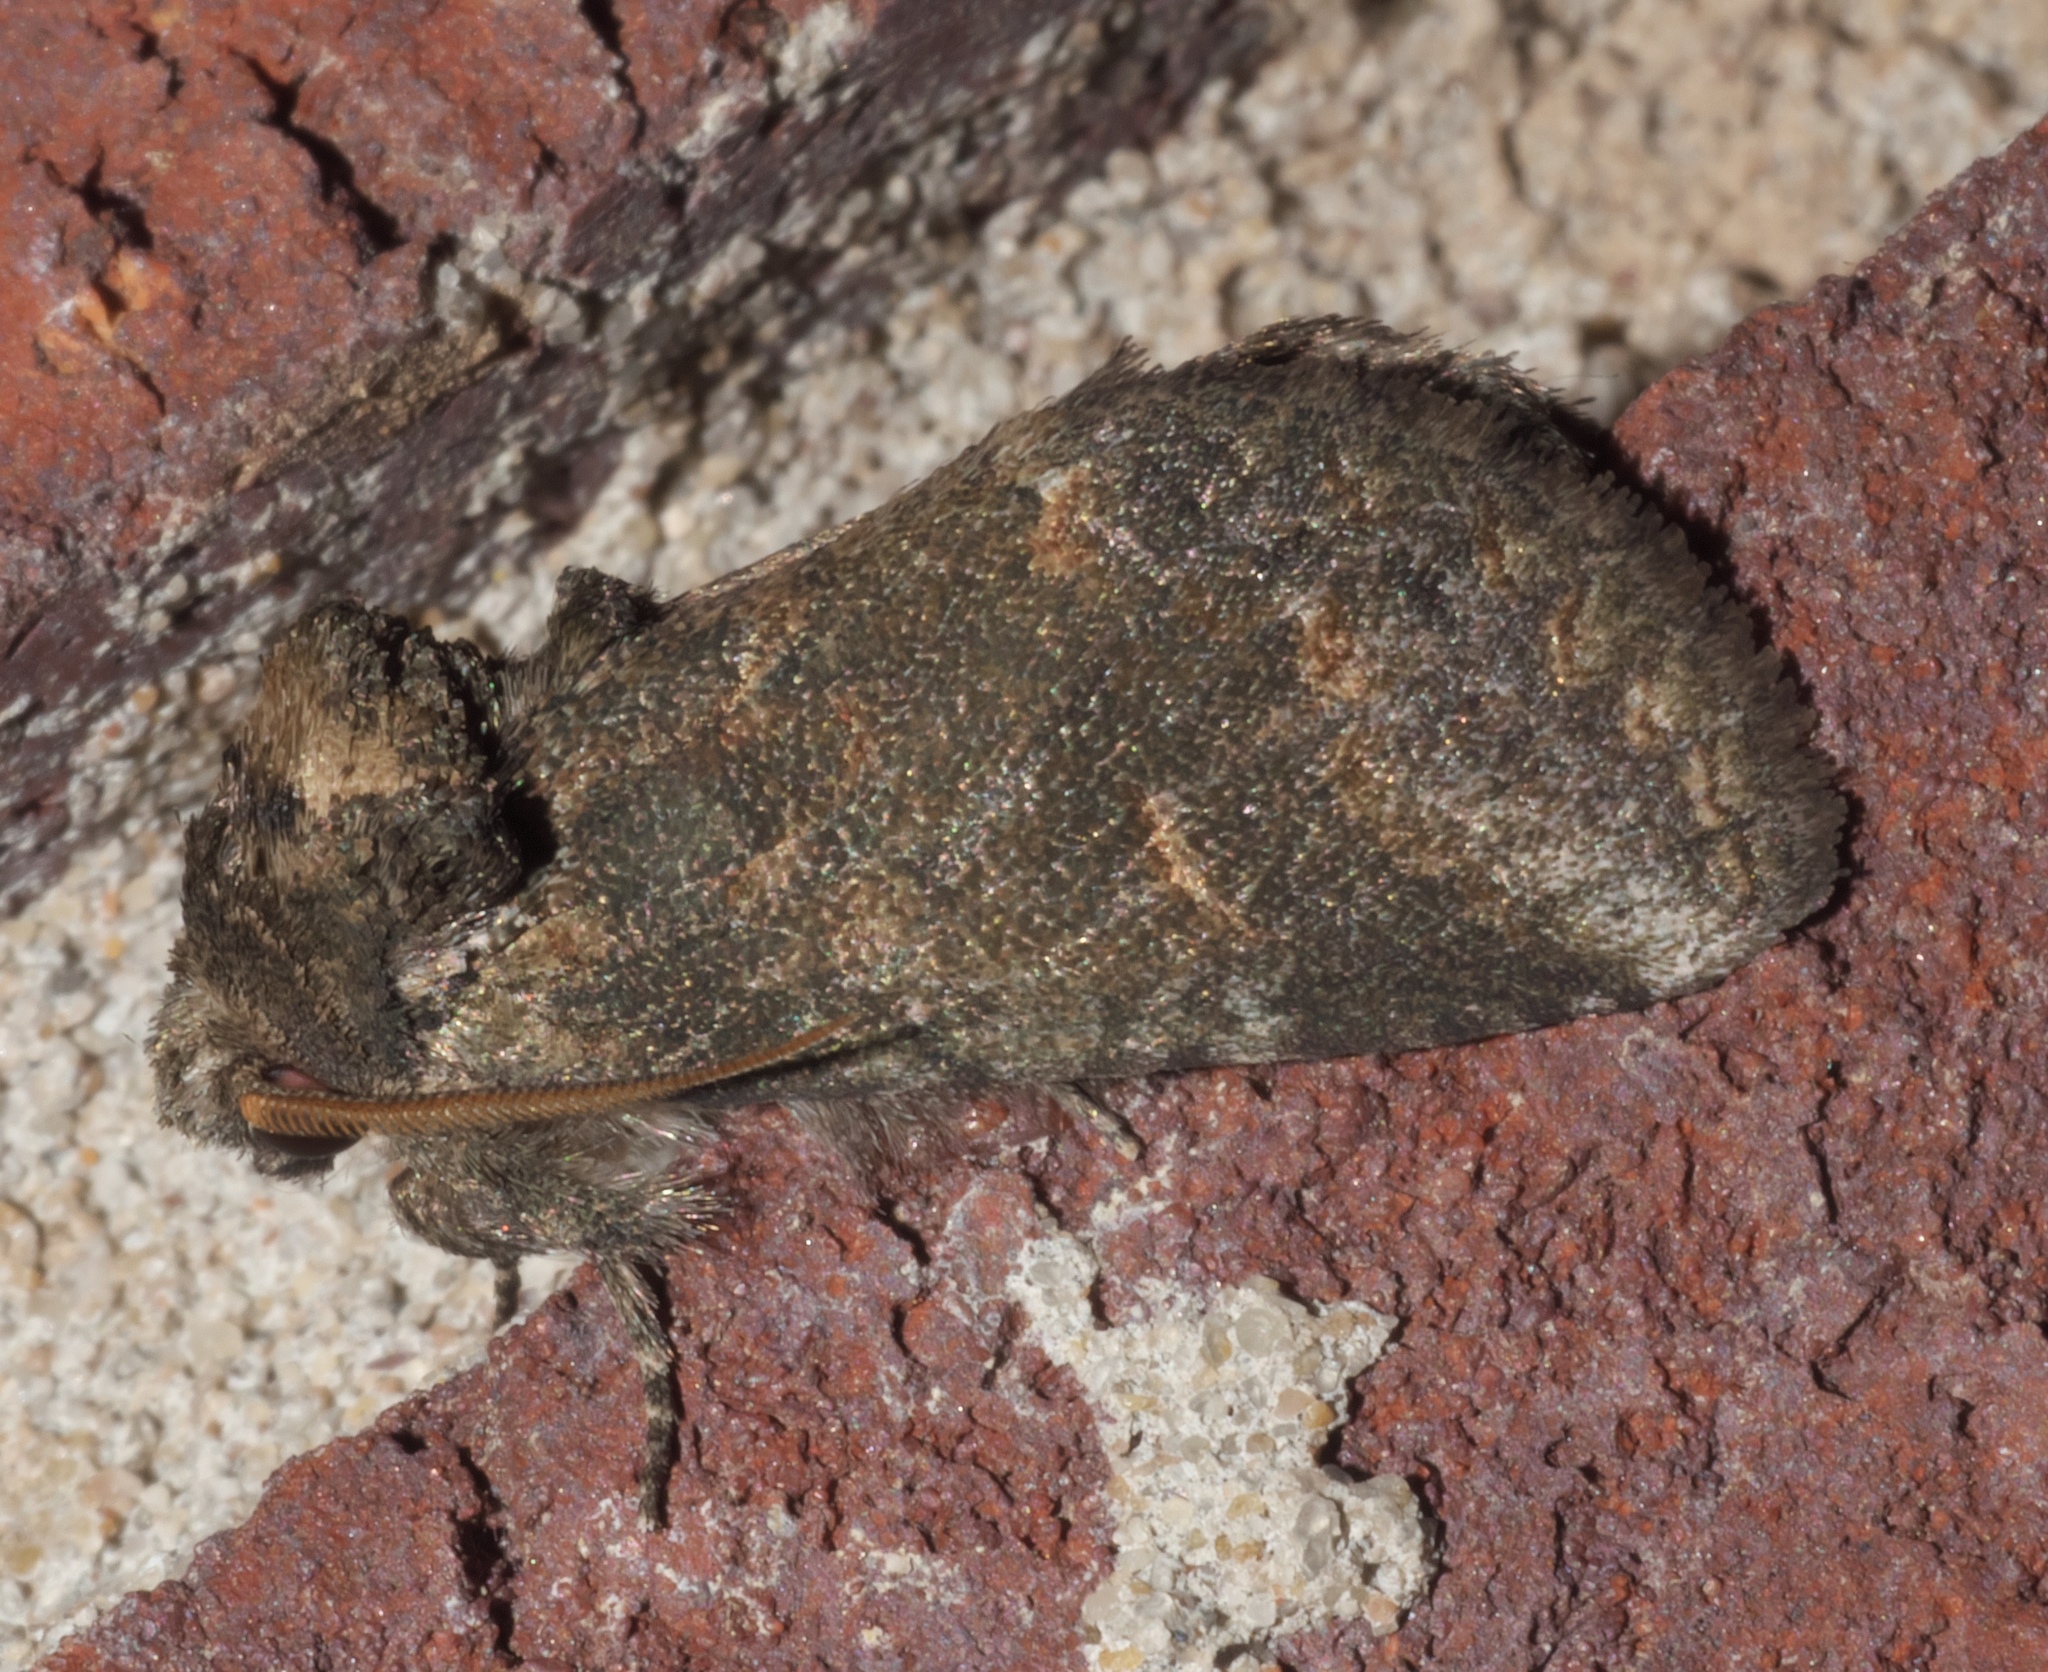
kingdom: Animalia
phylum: Arthropoda
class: Insecta
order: Lepidoptera
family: Notodontidae
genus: Rifargia
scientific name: Rifargia
